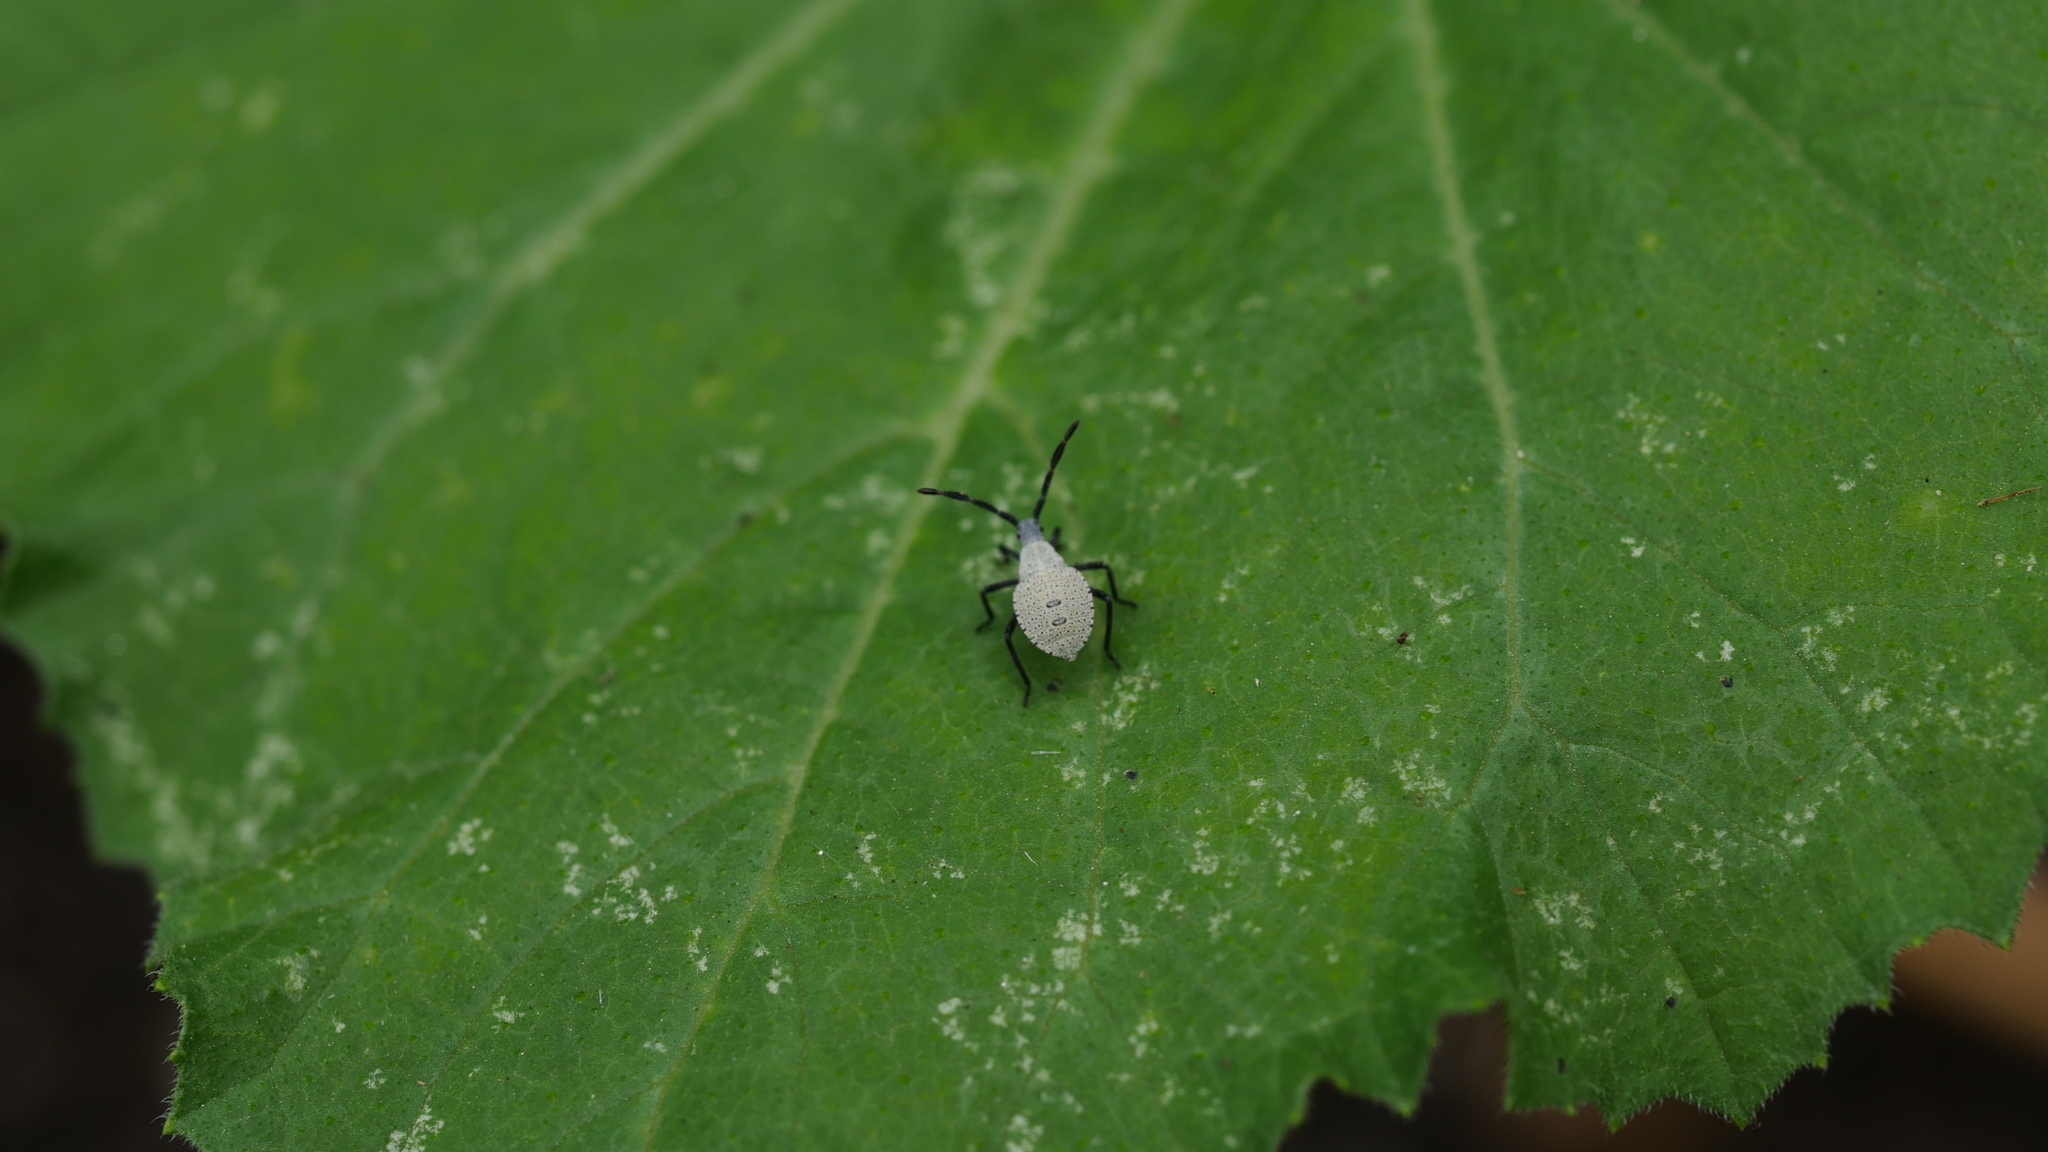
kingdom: Animalia
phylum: Arthropoda
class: Insecta
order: Hemiptera
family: Coreidae
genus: Anasa
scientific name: Anasa tristis
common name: Squash bug
